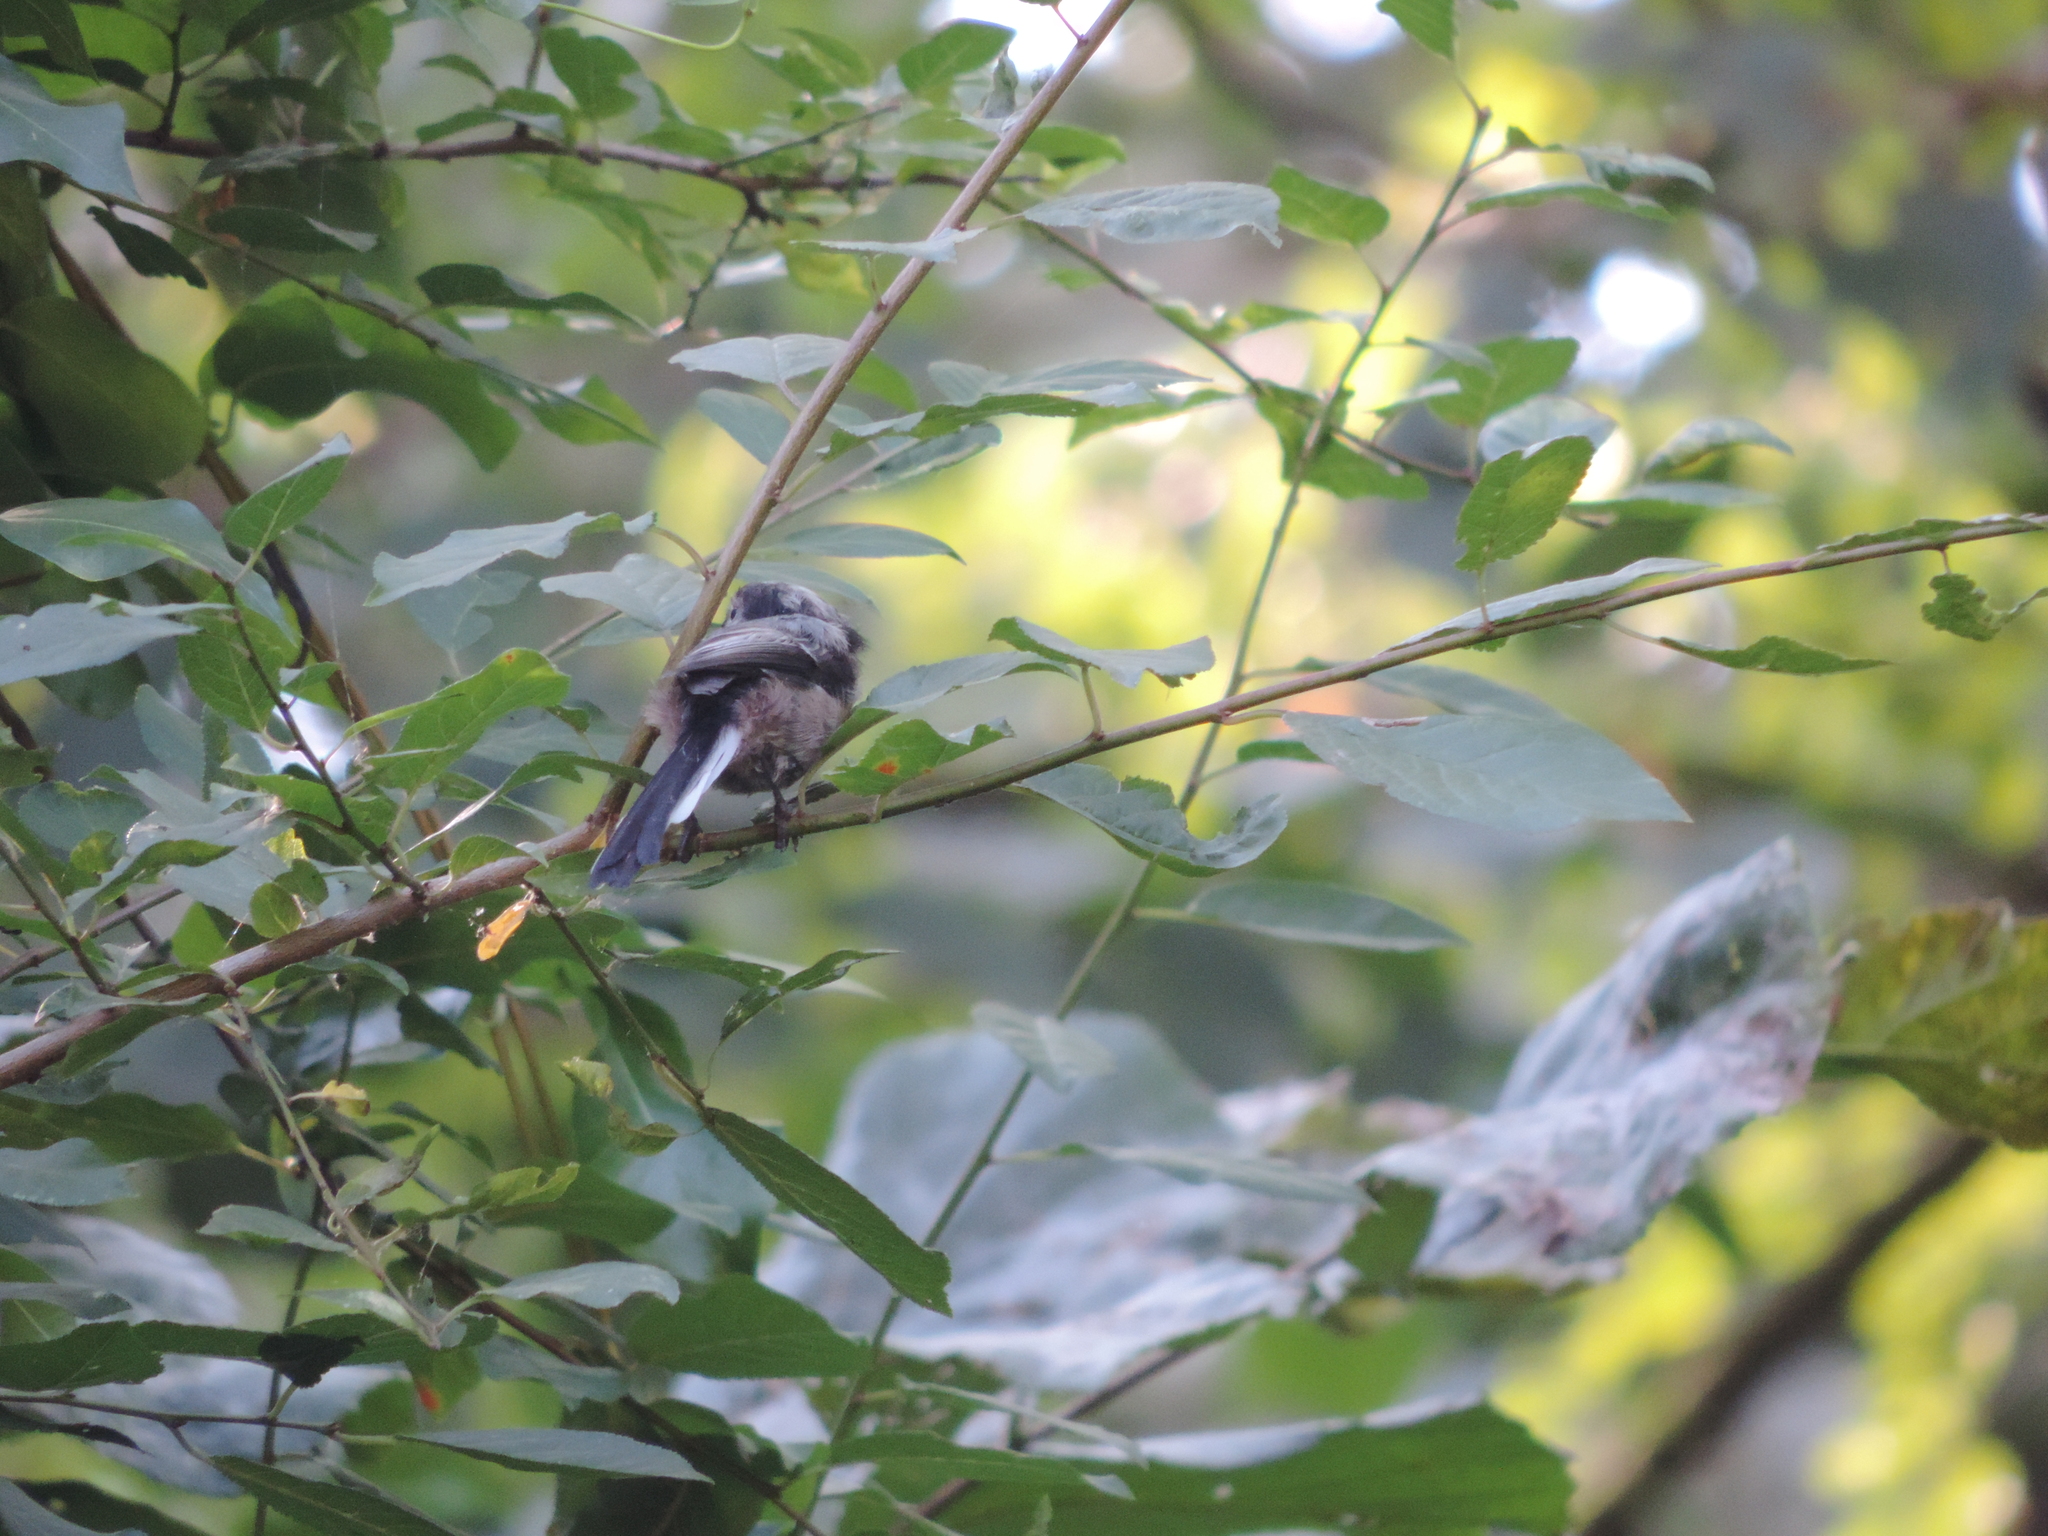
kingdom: Animalia
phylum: Chordata
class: Aves
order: Passeriformes
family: Aegithalidae
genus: Aegithalos
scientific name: Aegithalos caudatus
